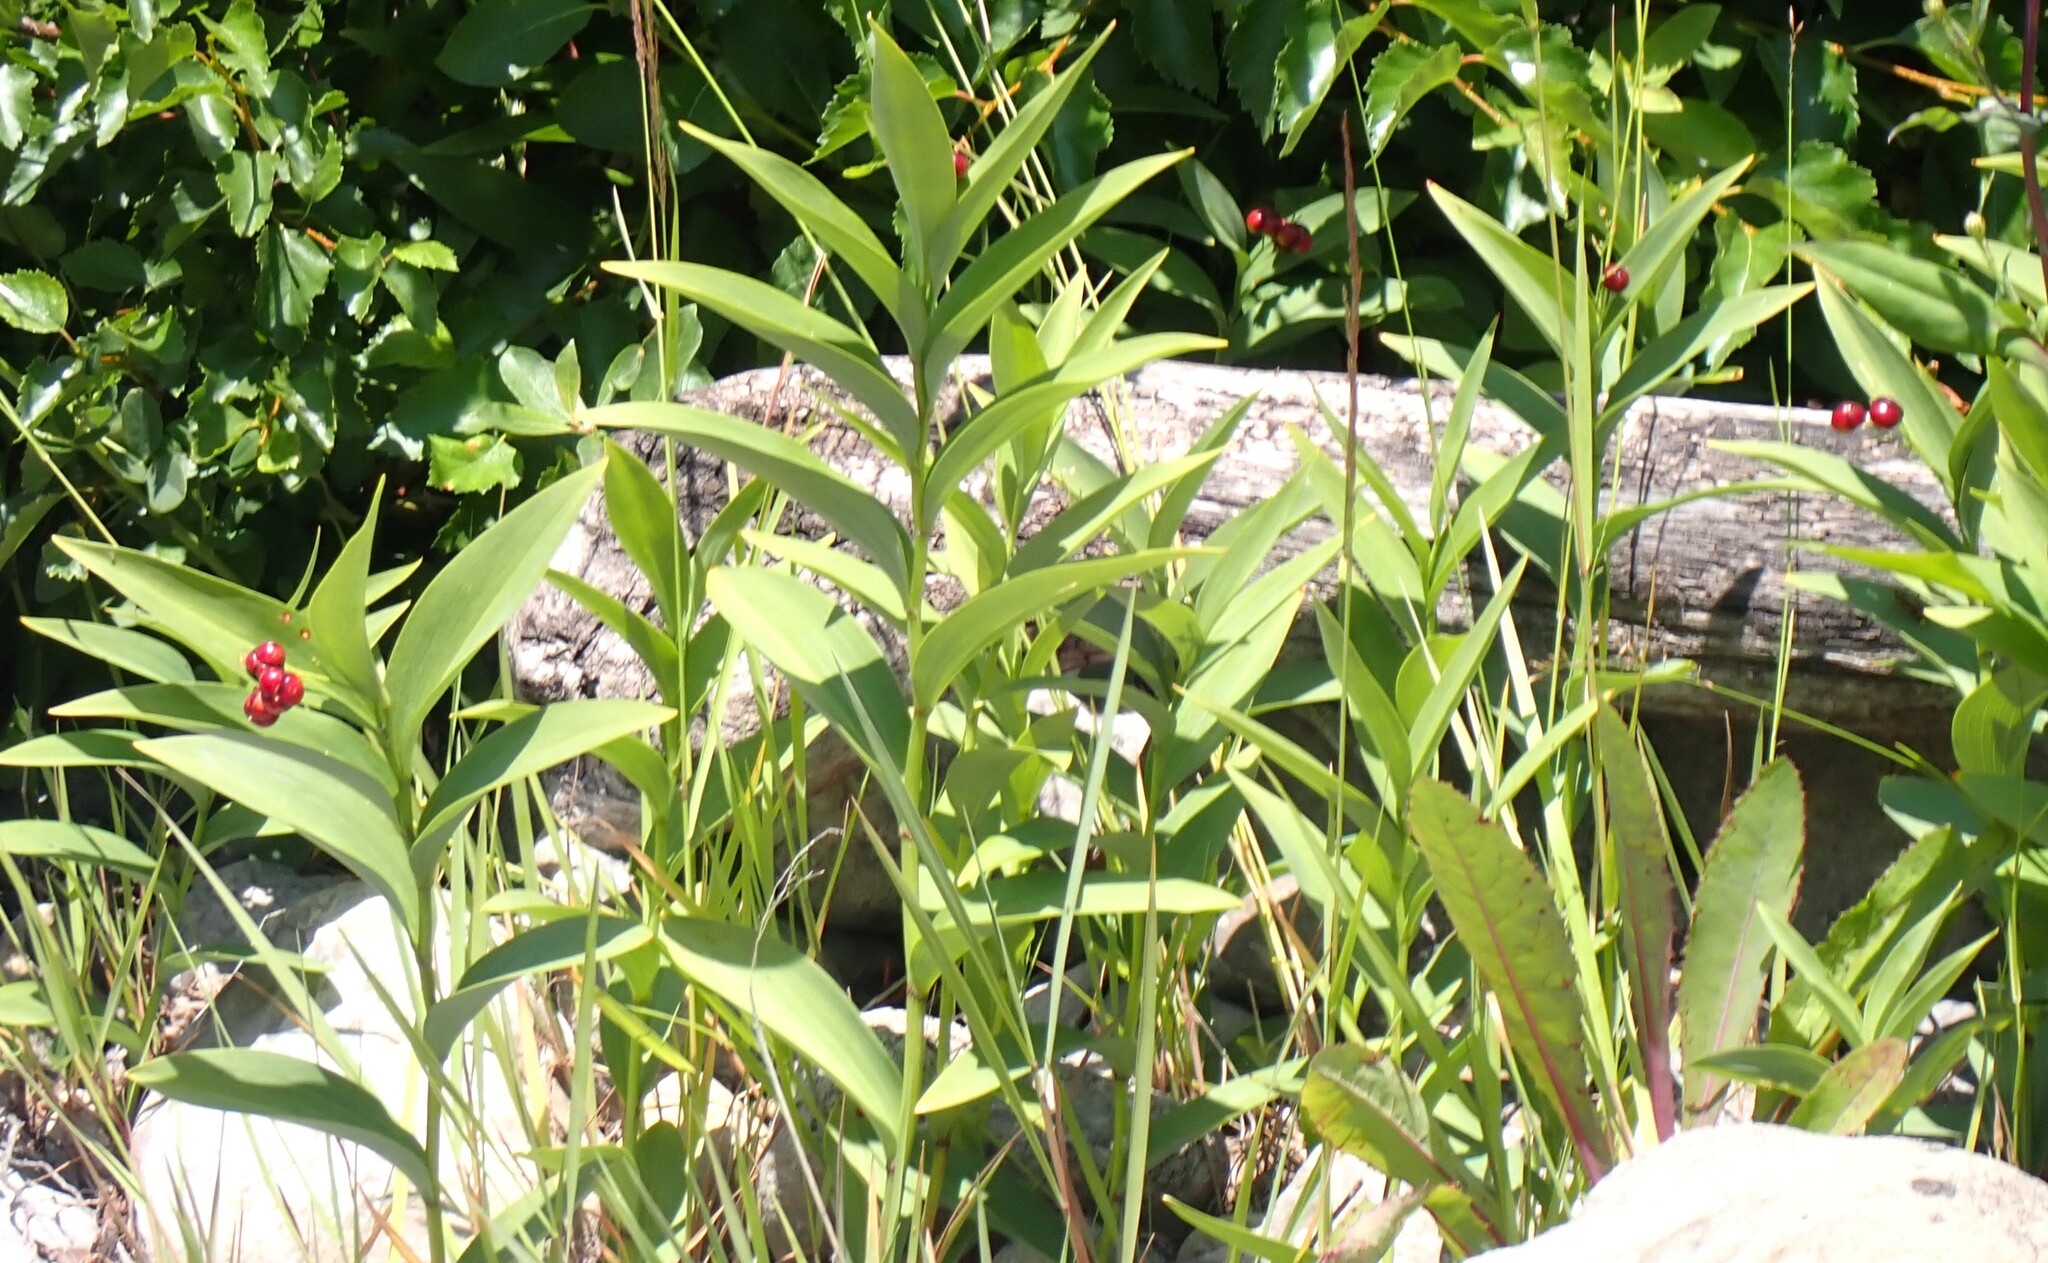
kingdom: Plantae
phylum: Tracheophyta
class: Liliopsida
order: Asparagales
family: Asparagaceae
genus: Maianthemum
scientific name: Maianthemum stellatum
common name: Little false solomon's seal
